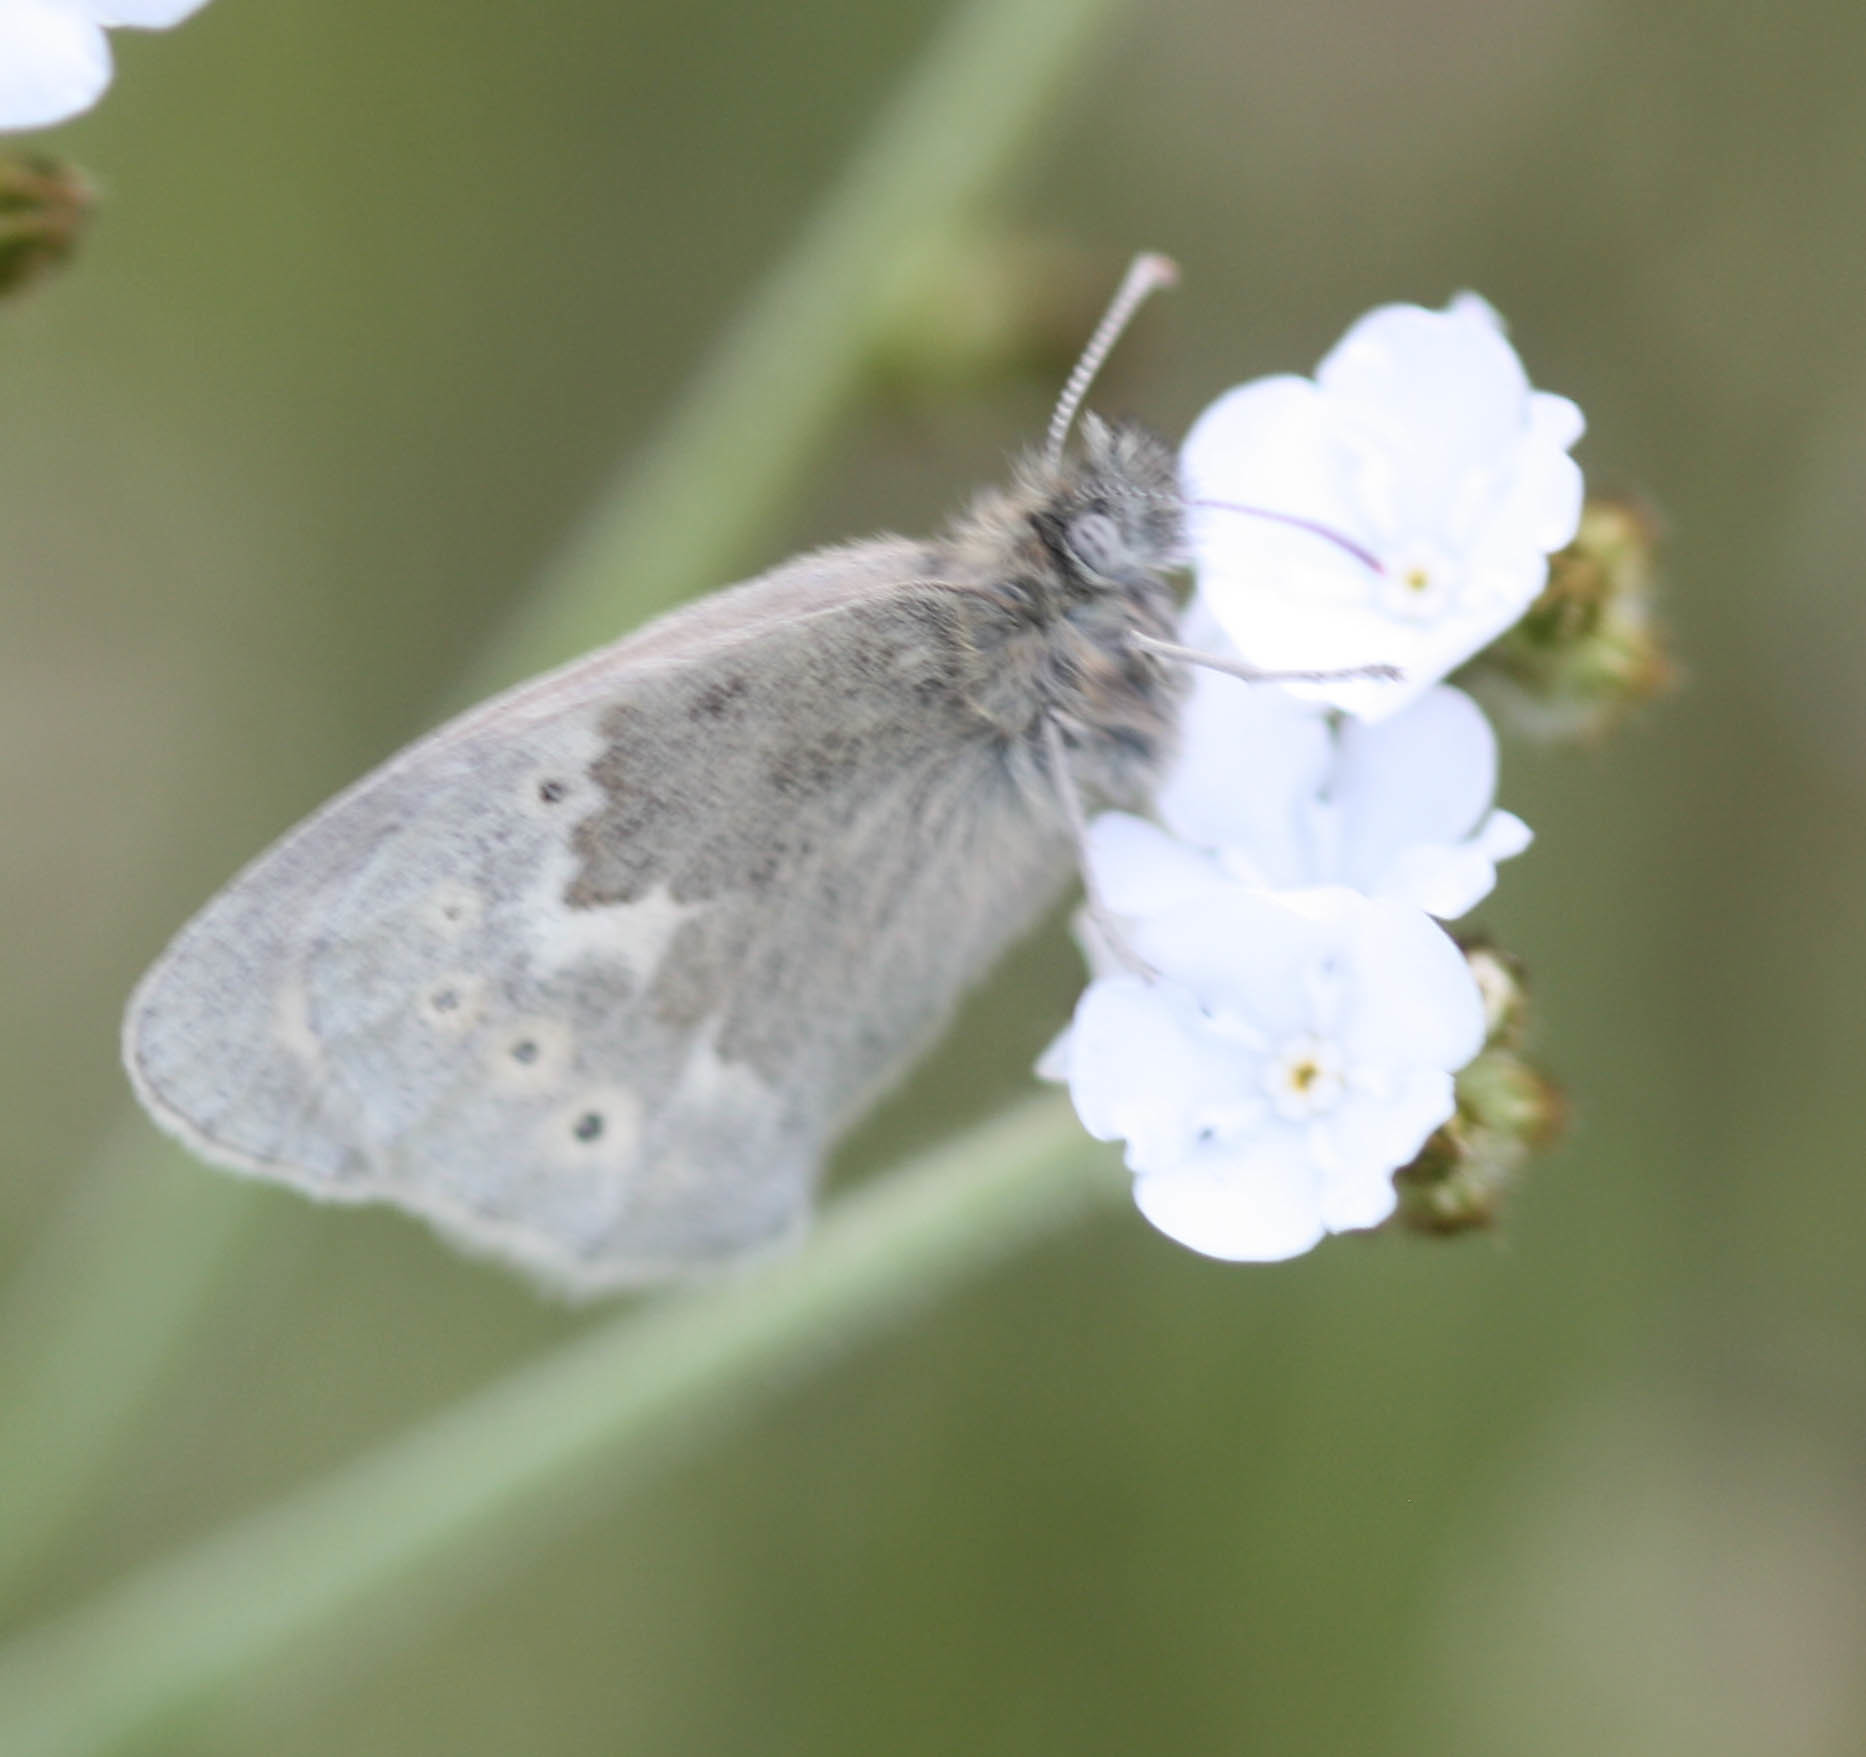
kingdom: Animalia
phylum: Arthropoda
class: Insecta
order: Lepidoptera
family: Nymphalidae
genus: Coenonympha
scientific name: Coenonympha california
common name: Common ringlet
